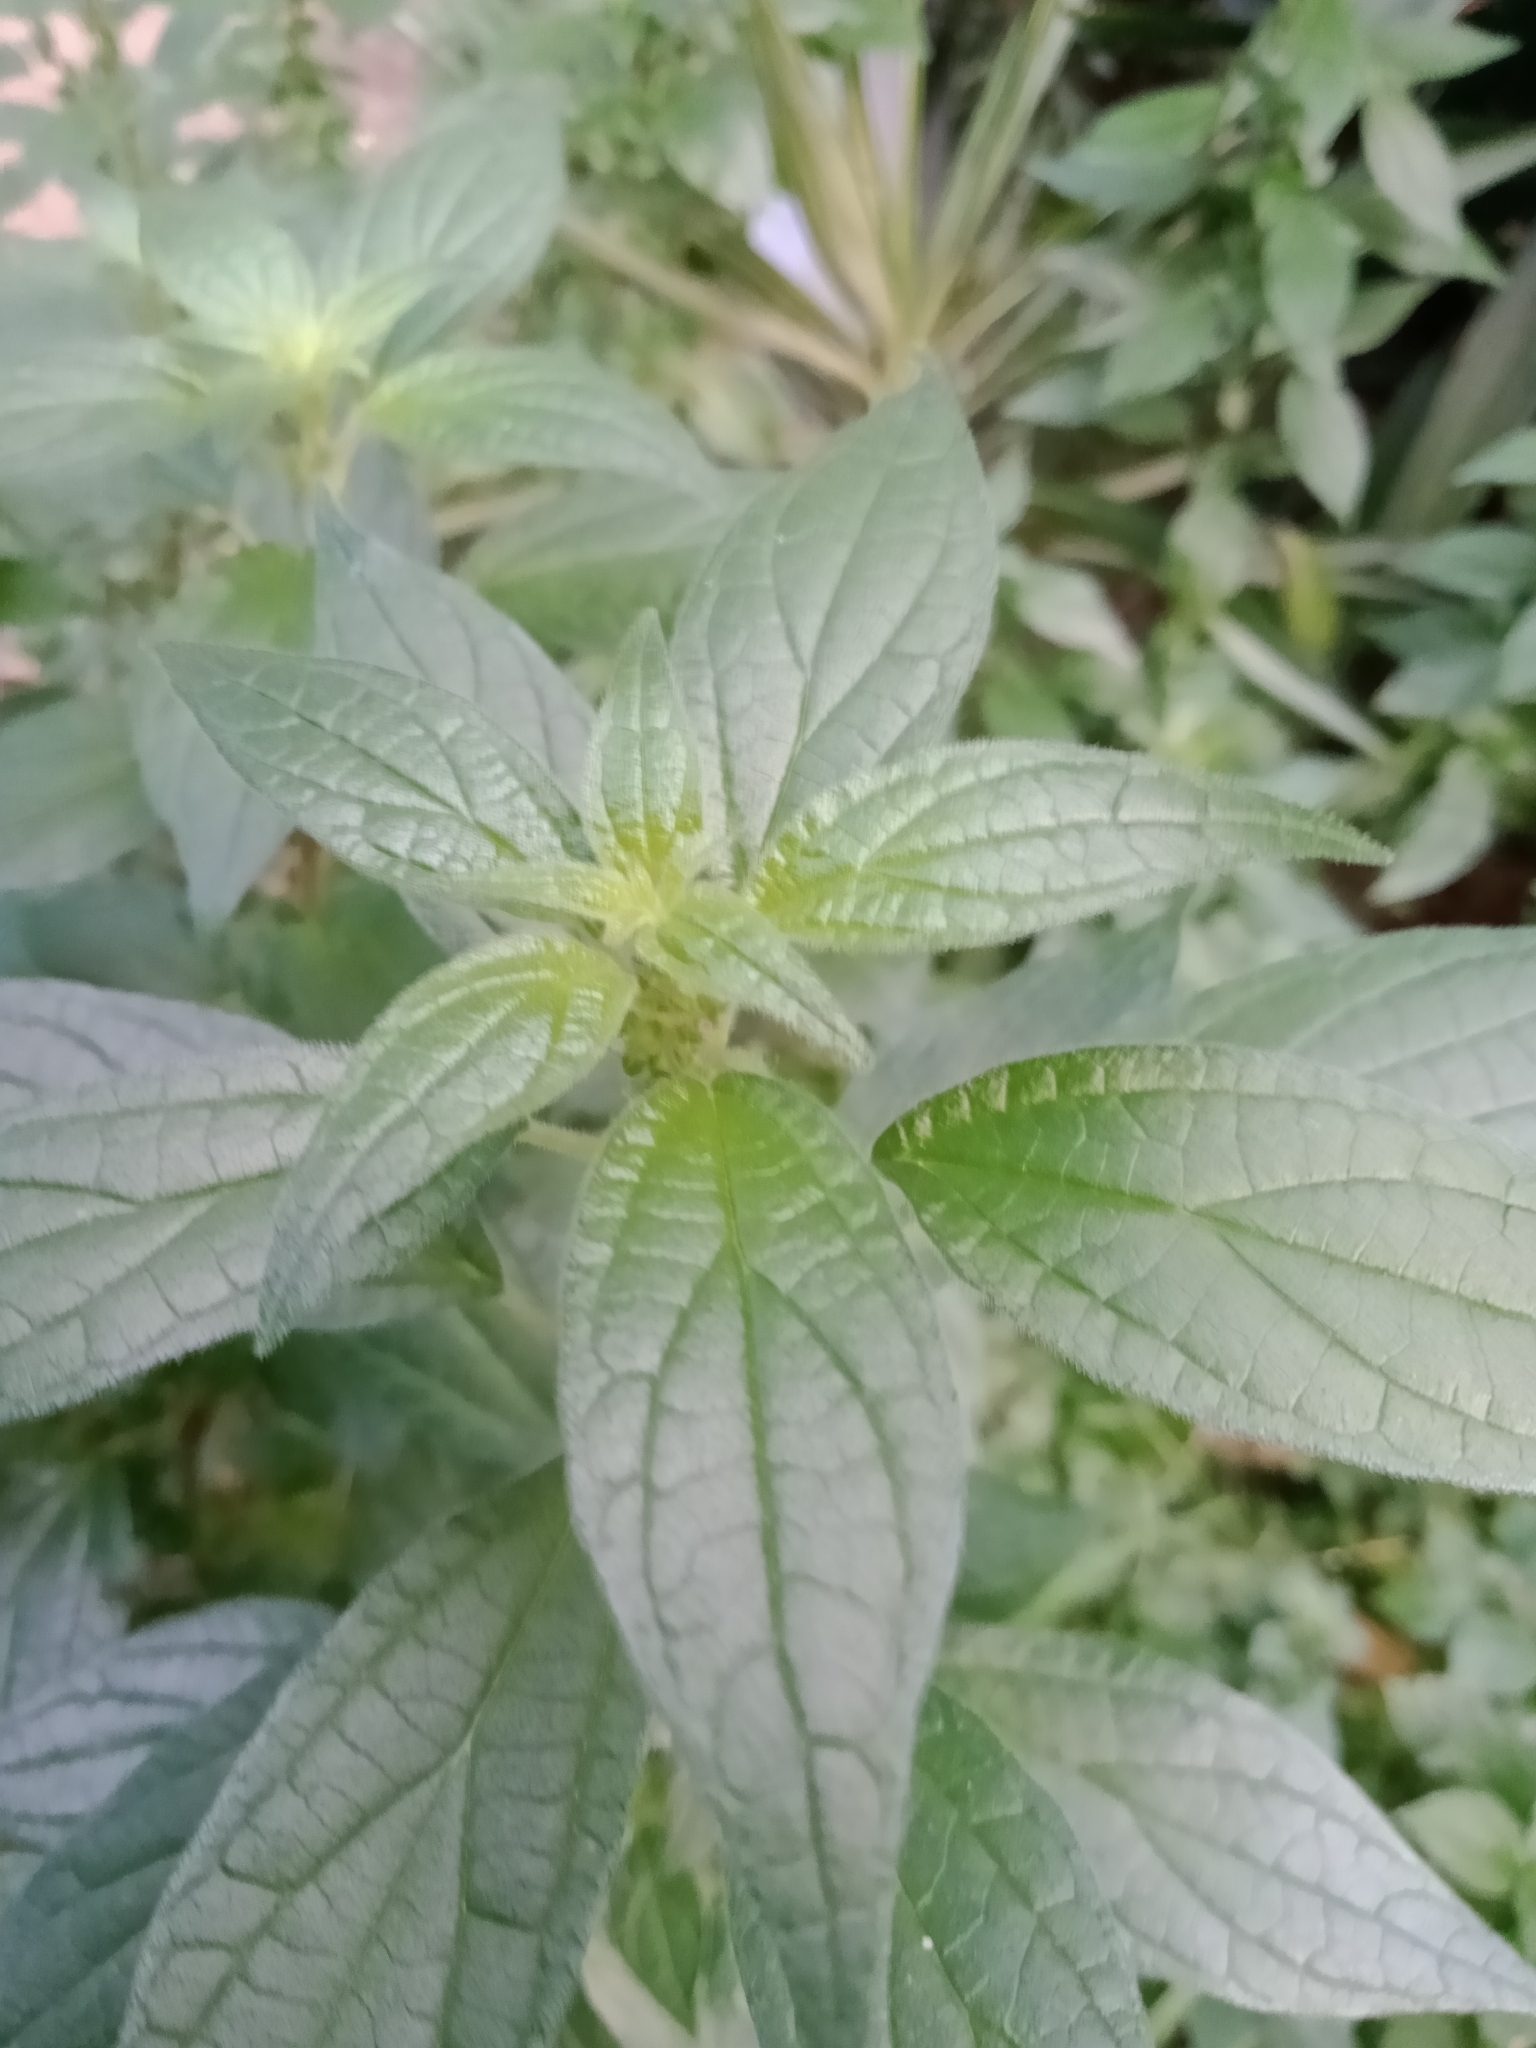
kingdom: Plantae
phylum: Tracheophyta
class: Magnoliopsida
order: Rosales
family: Urticaceae
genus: Parietaria
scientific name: Parietaria judaica
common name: Pellitory-of-the-wall
